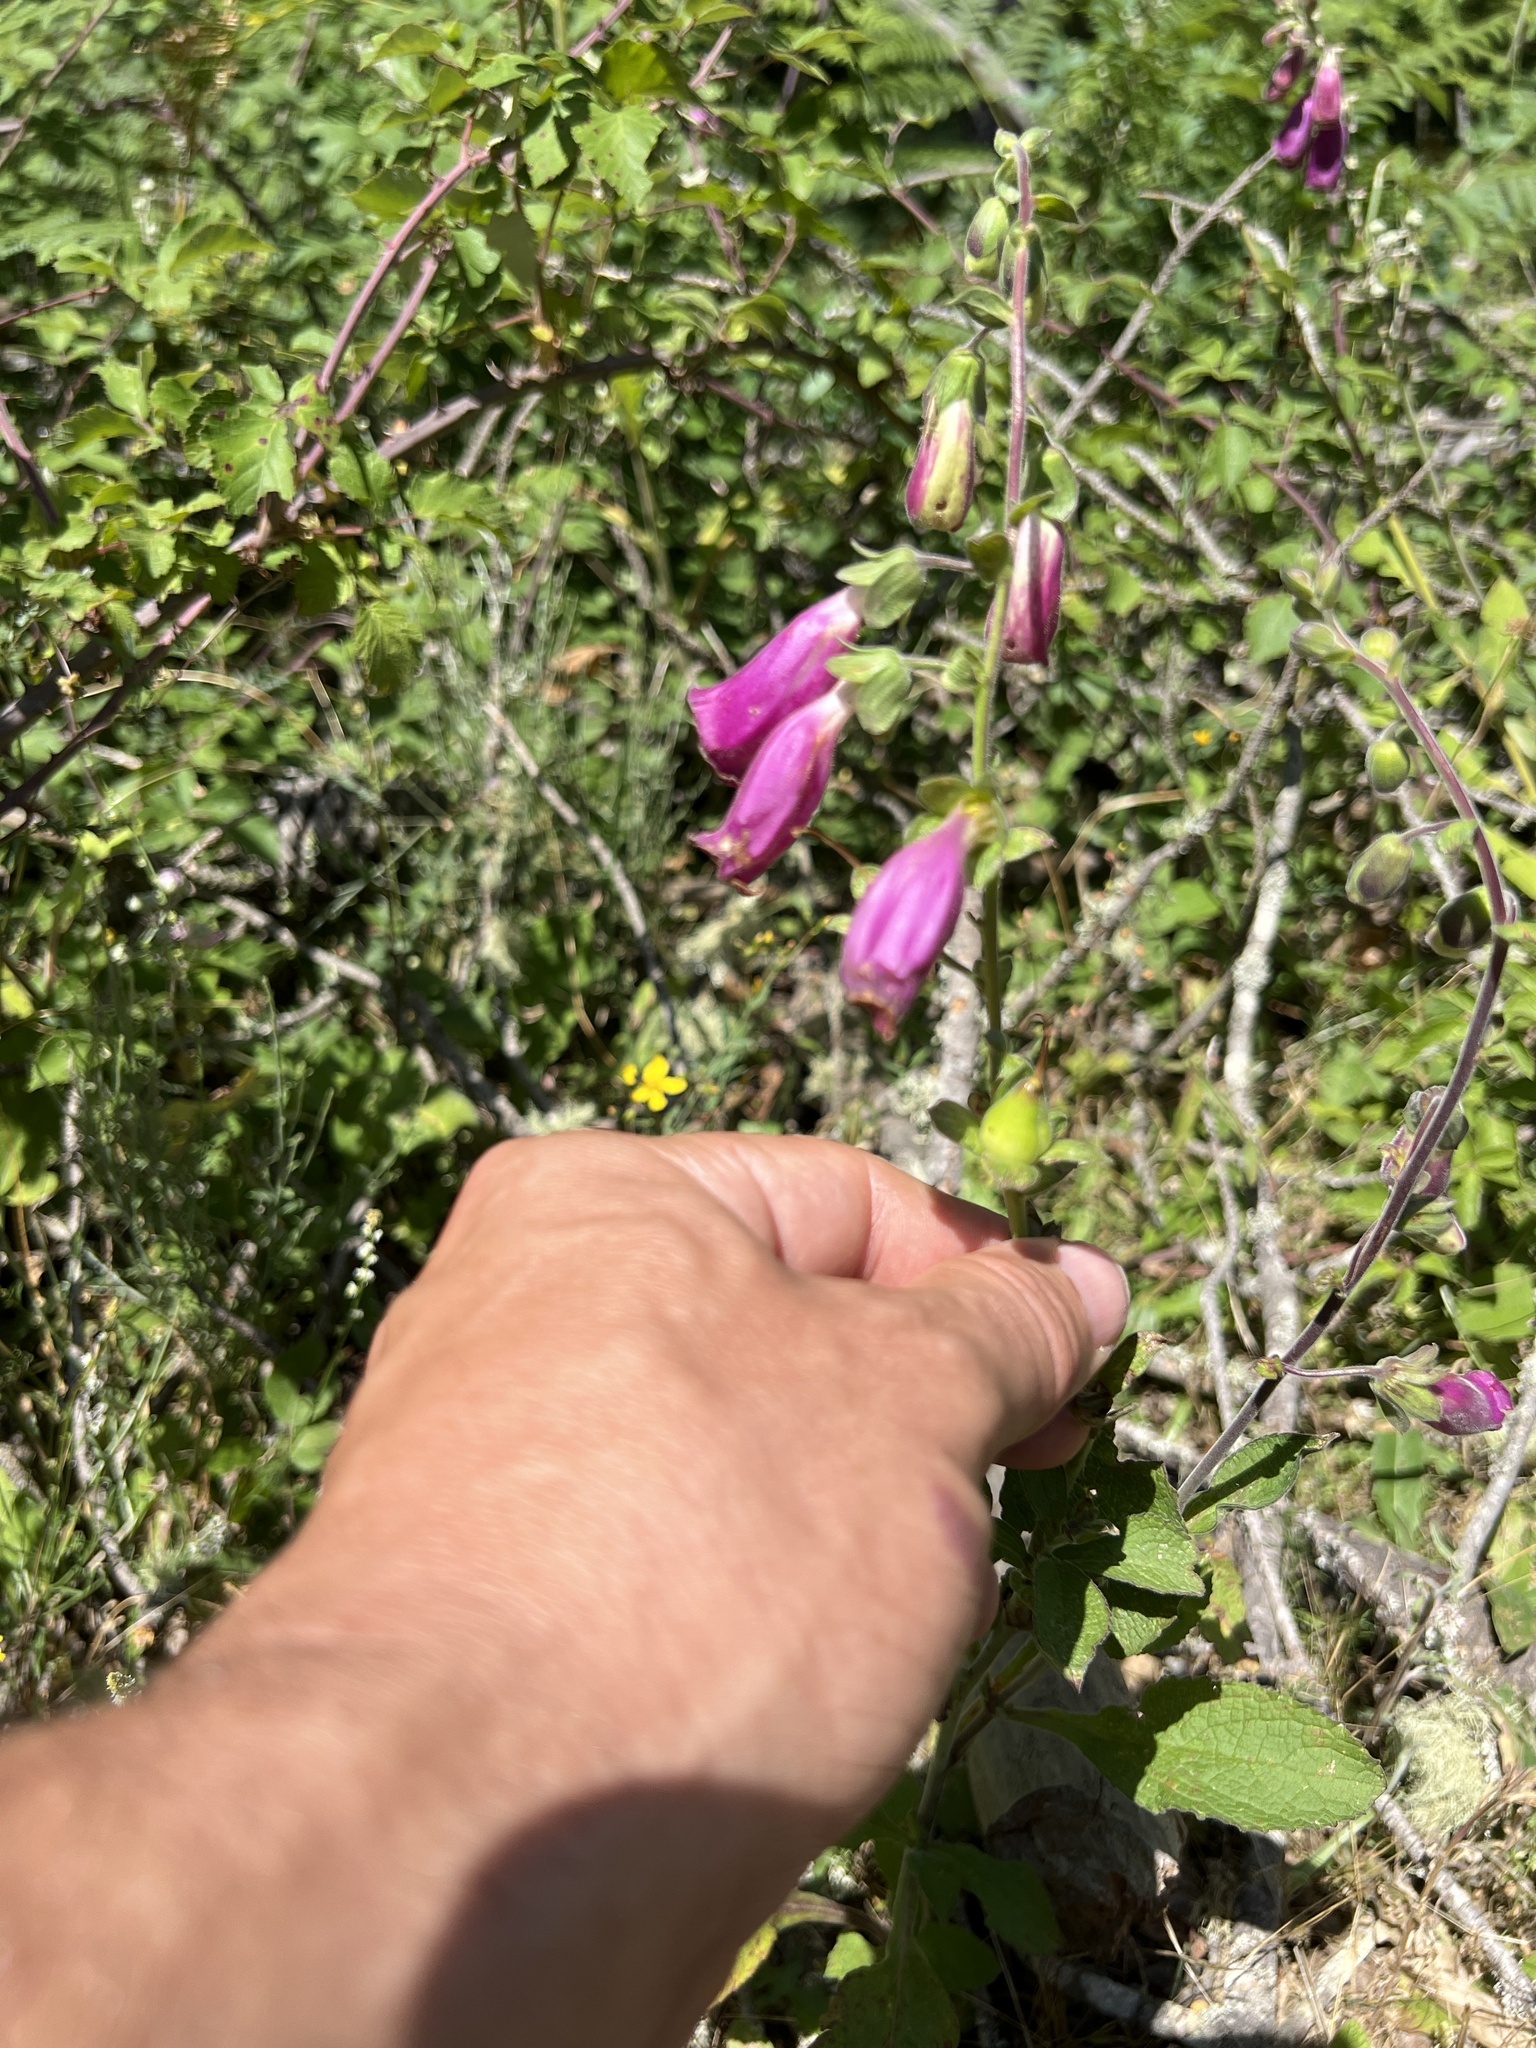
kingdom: Plantae
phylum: Tracheophyta
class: Magnoliopsida
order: Lamiales
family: Plantaginaceae
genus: Digitalis
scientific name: Digitalis purpurea
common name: Foxglove
